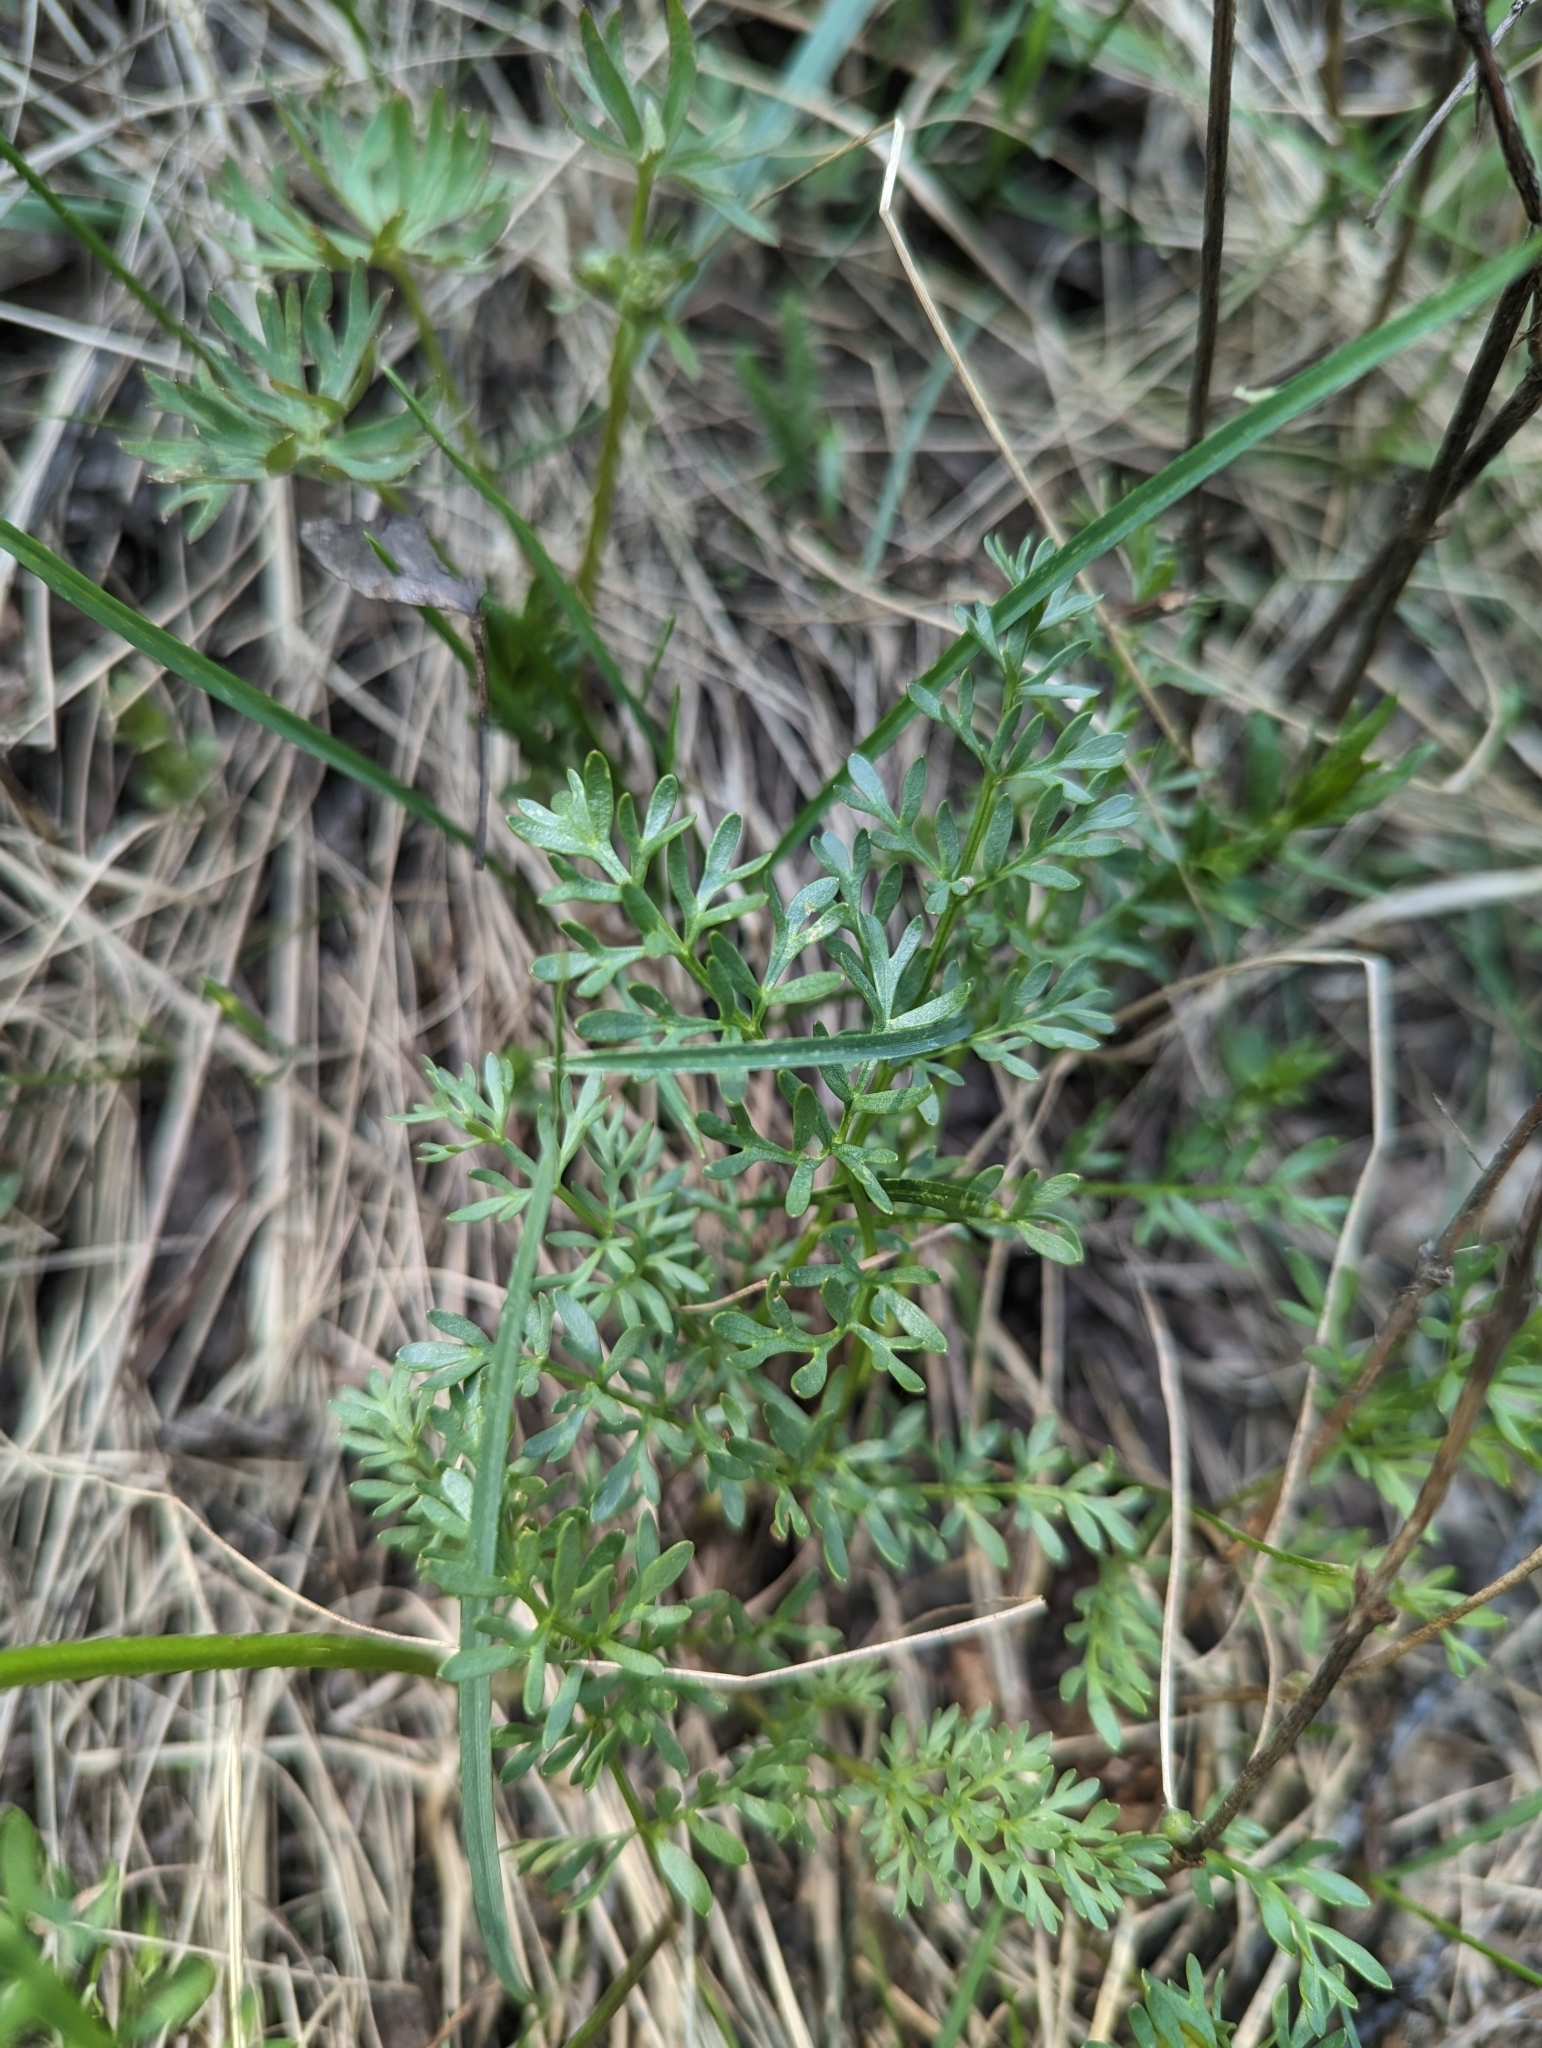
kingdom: Plantae
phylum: Tracheophyta
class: Magnoliopsida
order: Apiales
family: Apiaceae
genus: Musineon
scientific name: Musineon divaricatum
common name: Plains musineon
